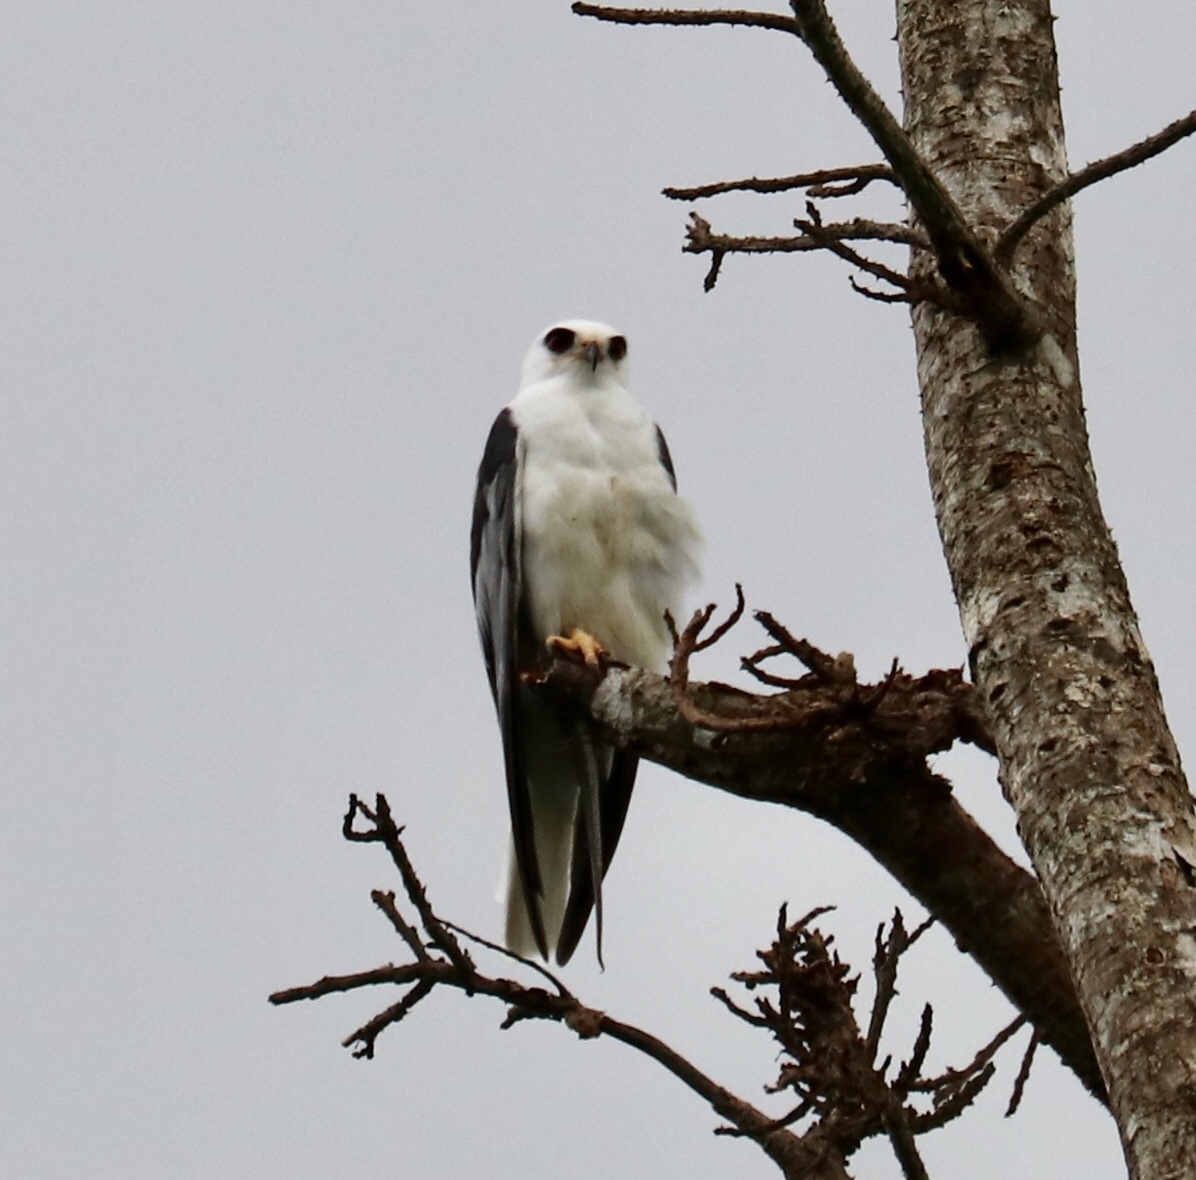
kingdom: Animalia
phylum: Chordata
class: Aves
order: Accipitriformes
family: Accipitridae
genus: Elanus
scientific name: Elanus leucurus
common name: White-tailed kite
